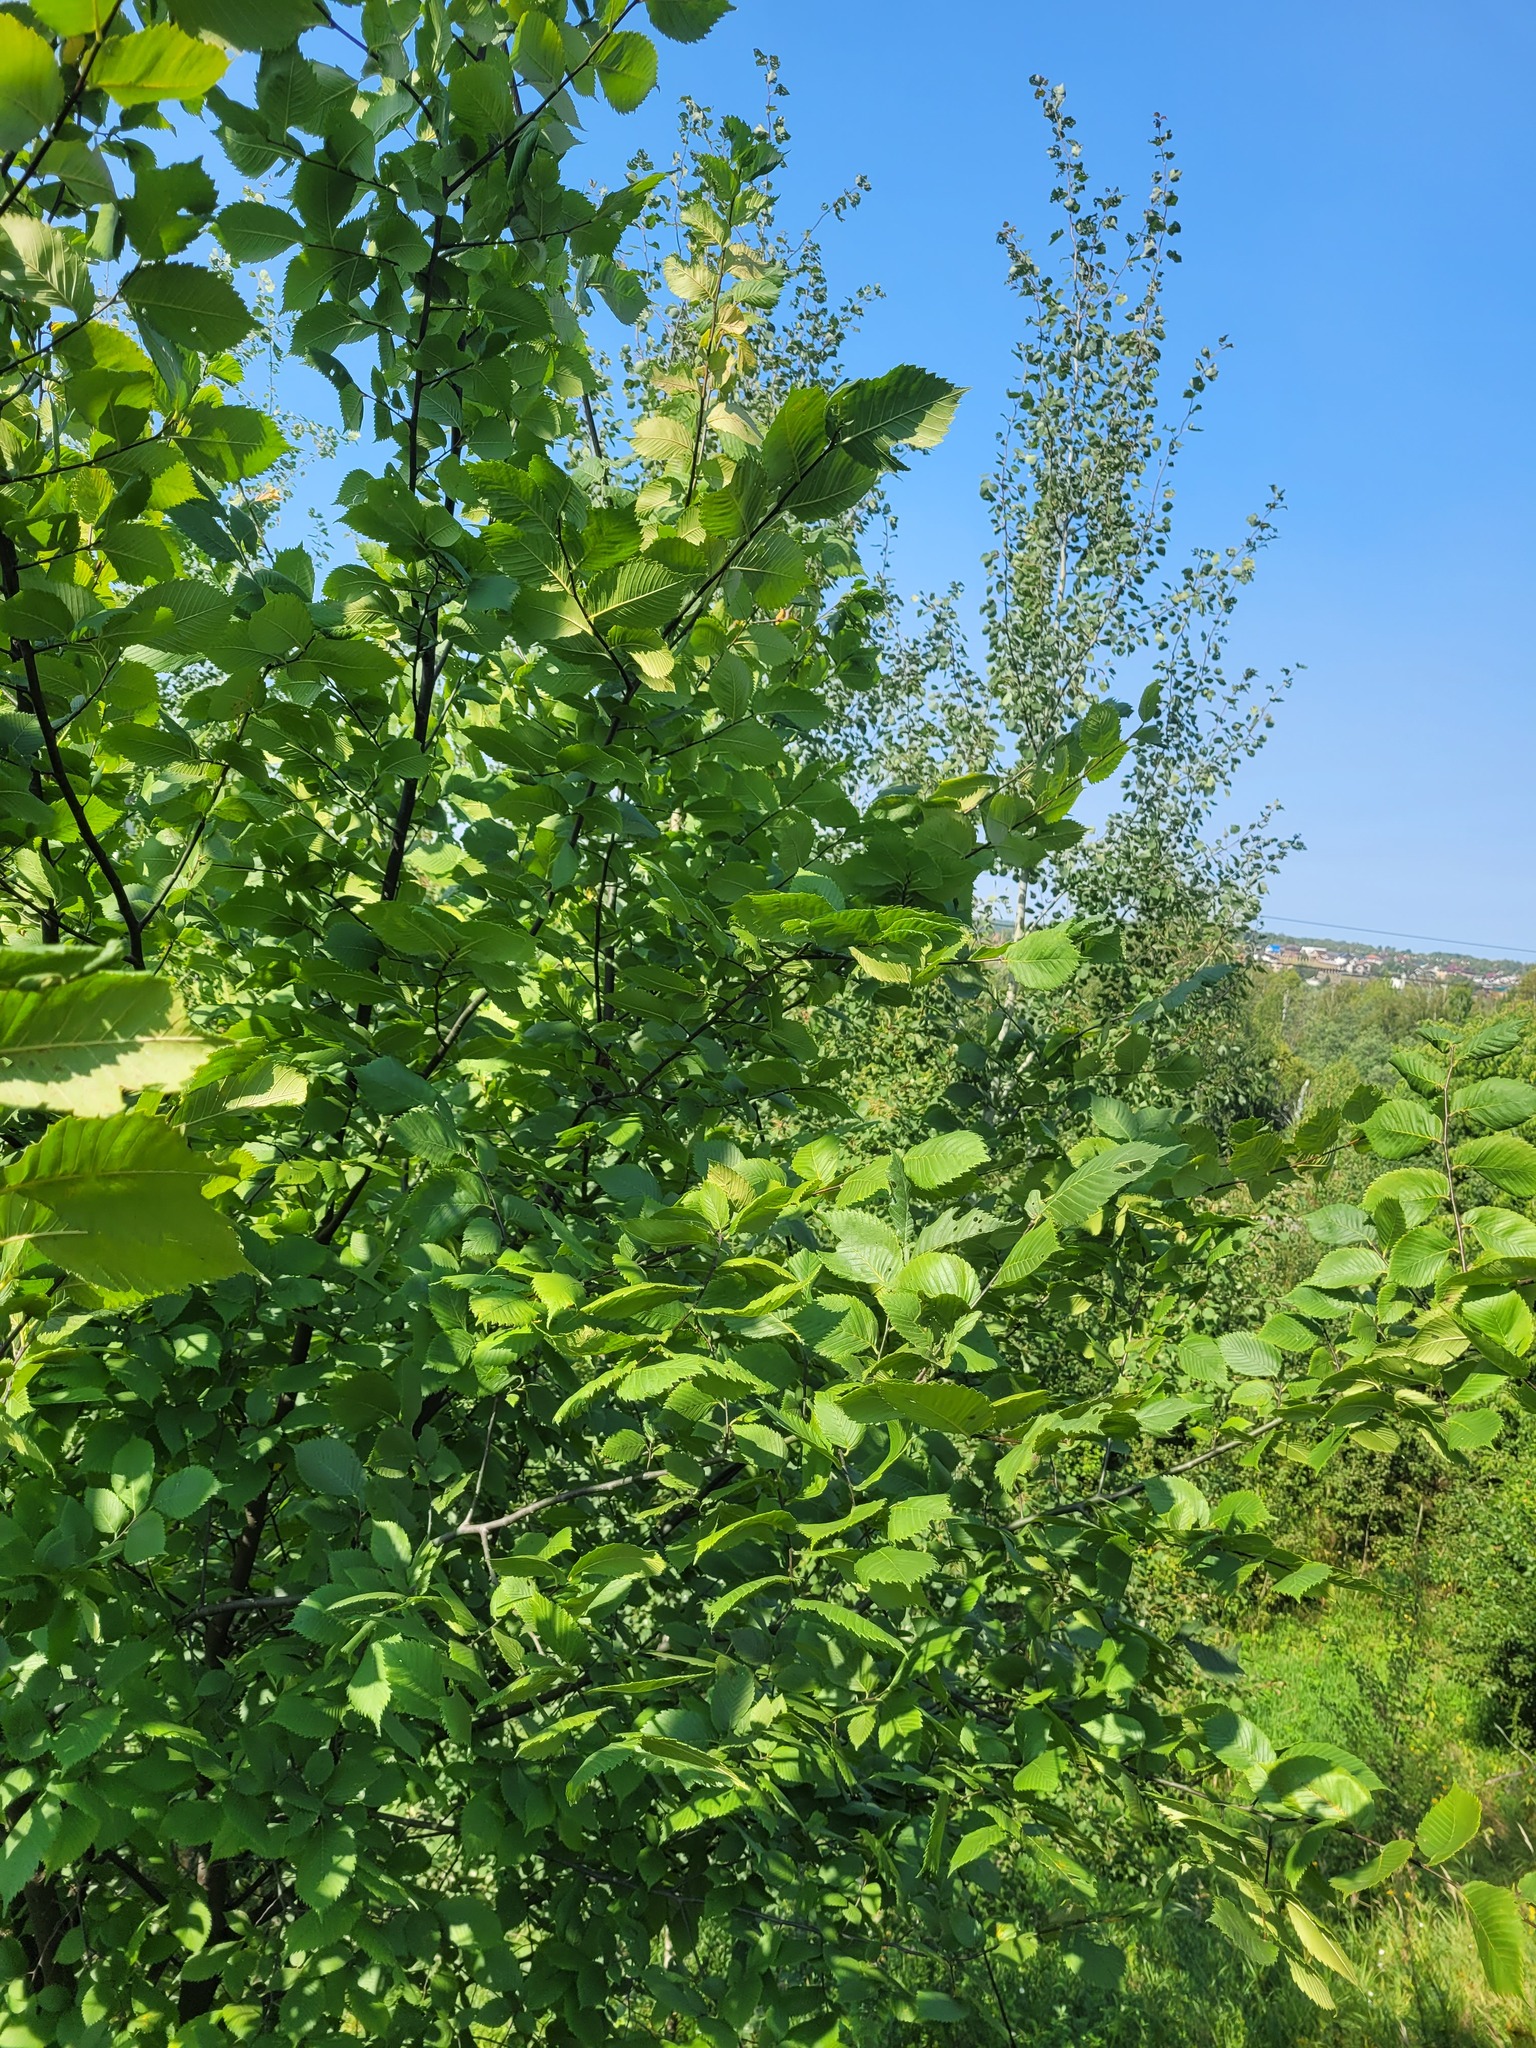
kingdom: Plantae
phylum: Tracheophyta
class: Magnoliopsida
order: Rosales
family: Ulmaceae
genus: Ulmus
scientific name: Ulmus laevis
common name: European white-elm
